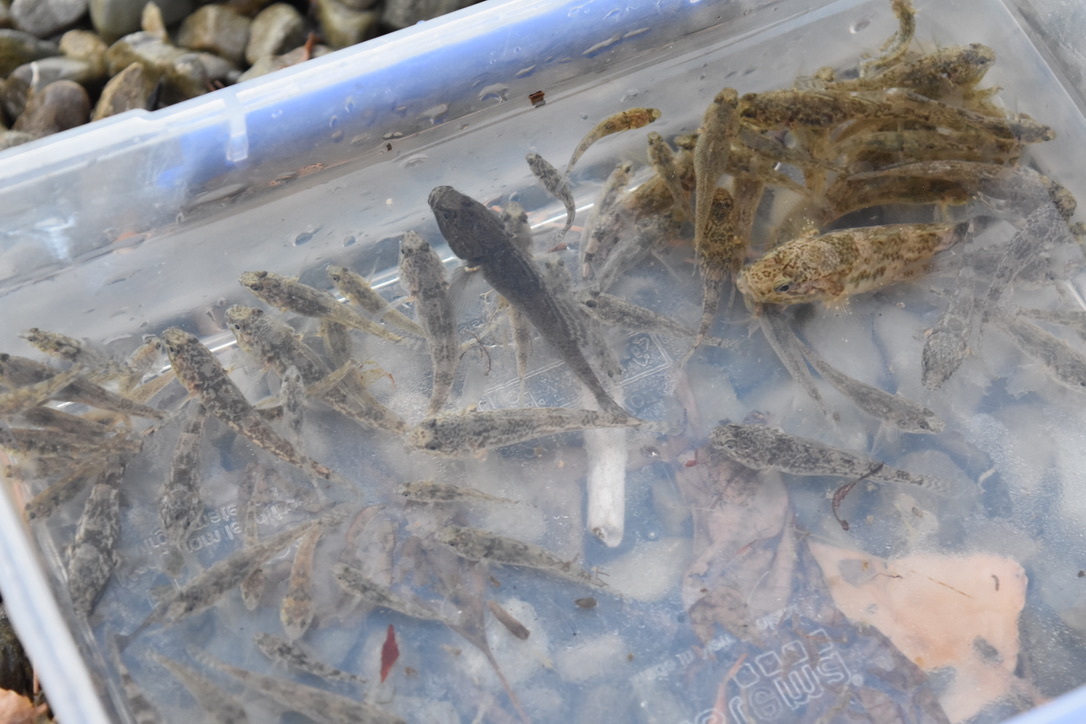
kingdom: Animalia
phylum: Chordata
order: Perciformes
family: Eleotridae
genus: Gobiomorphus
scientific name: Gobiomorphus cotidianus
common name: Common bully
